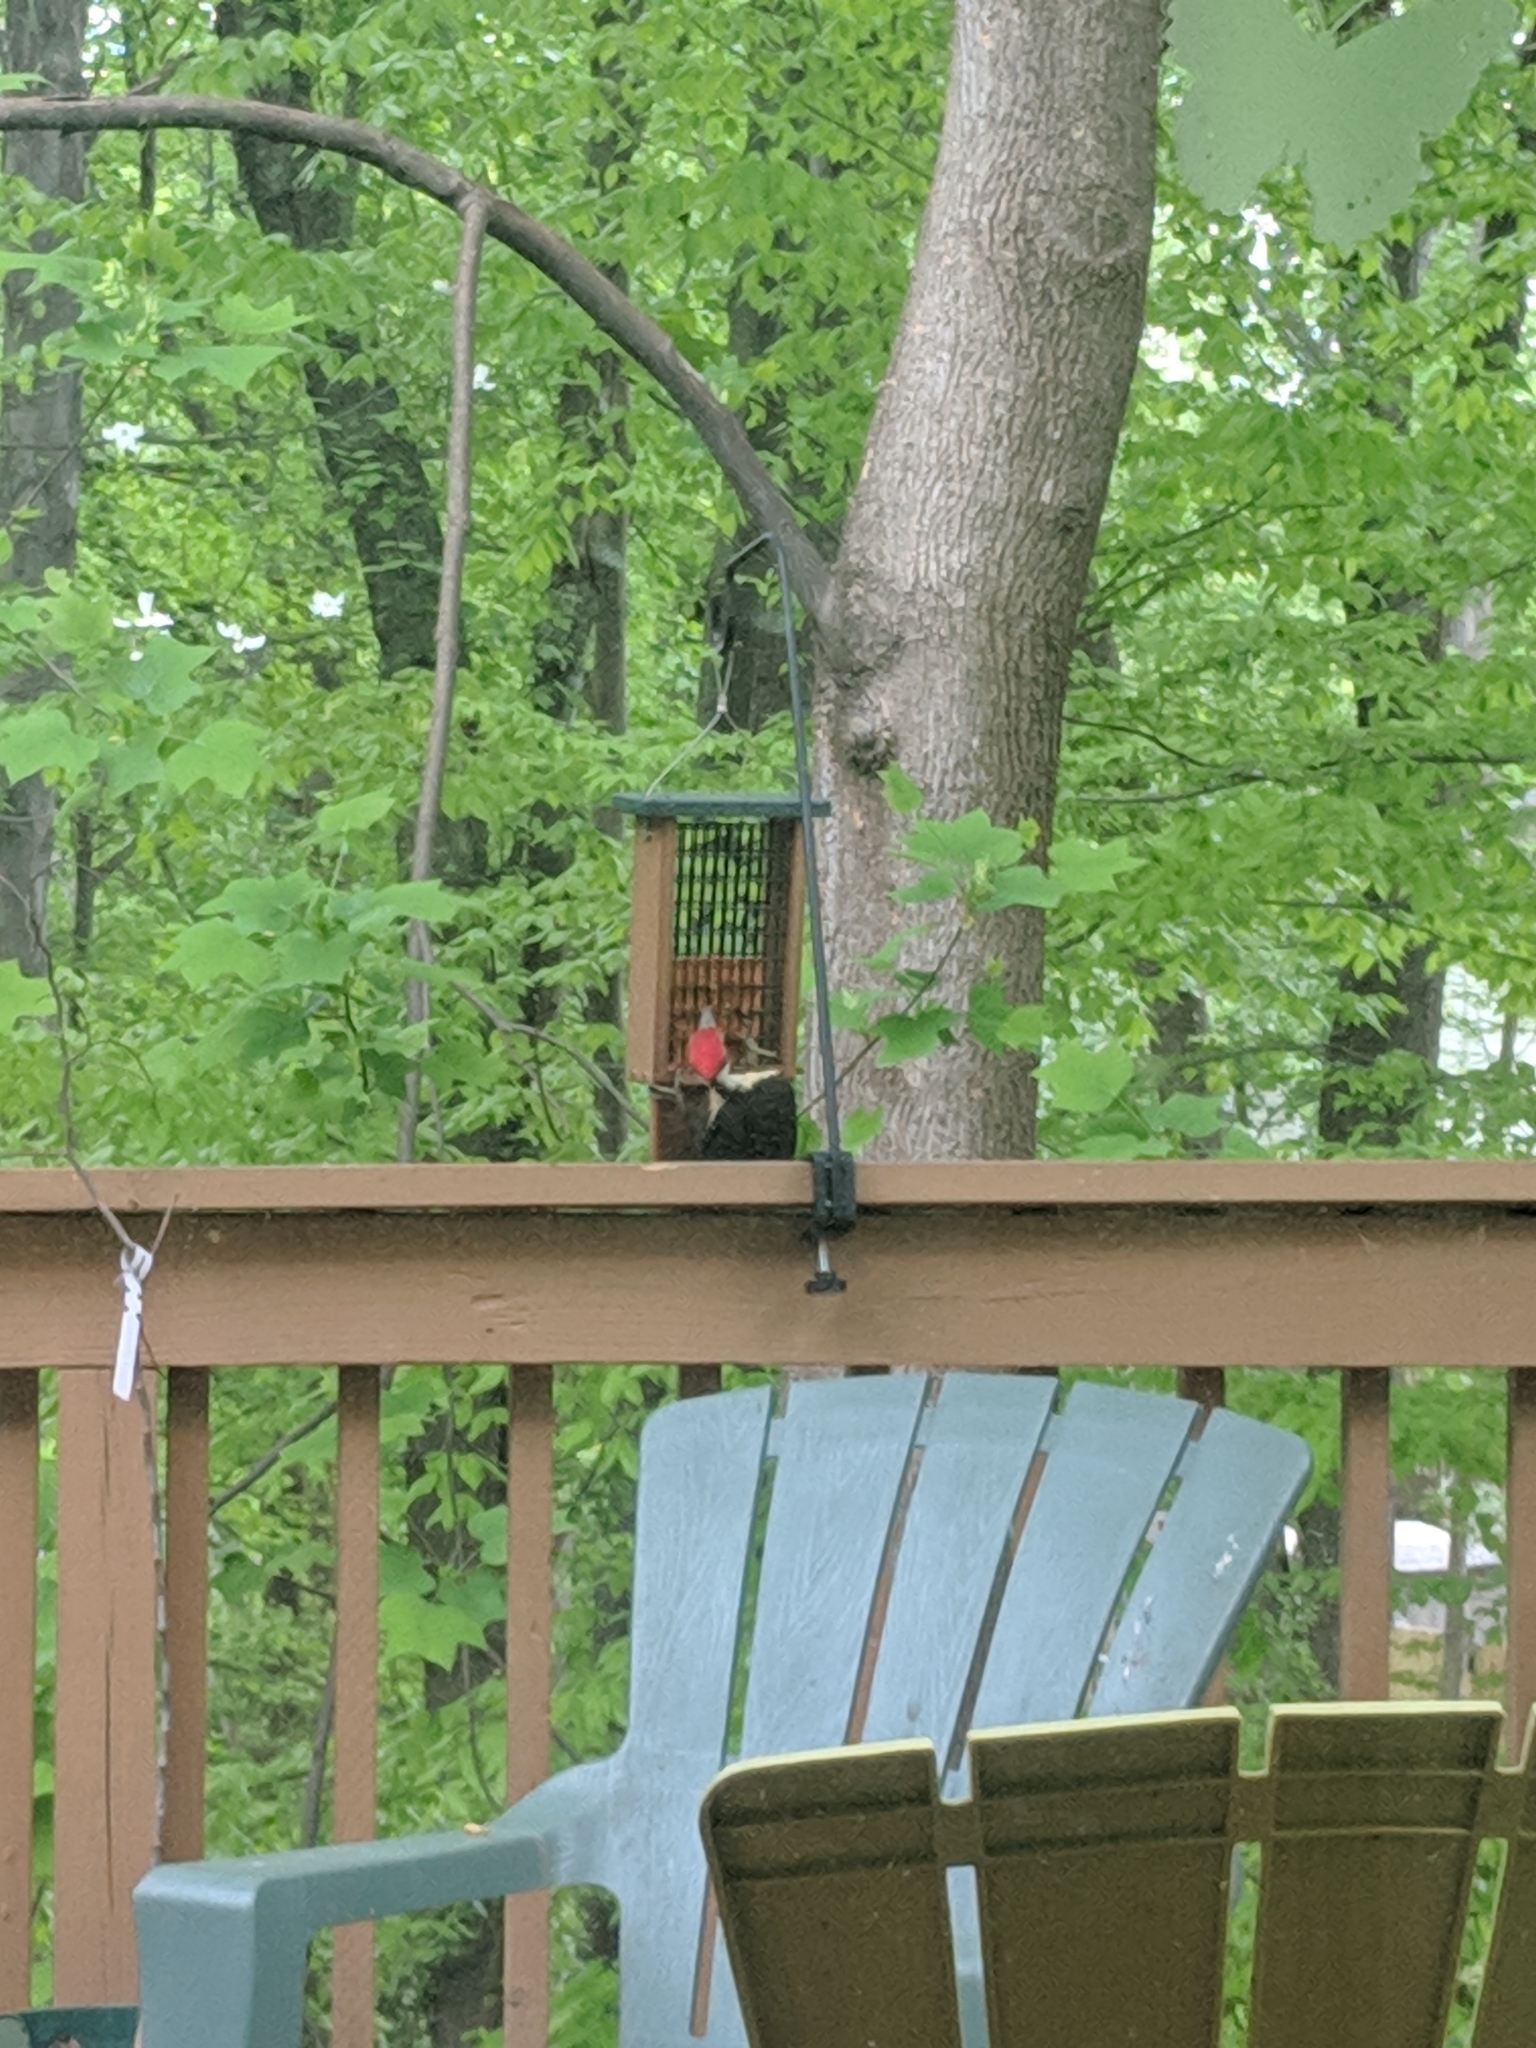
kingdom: Animalia
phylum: Chordata
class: Aves
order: Piciformes
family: Picidae
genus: Dryocopus
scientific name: Dryocopus pileatus
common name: Pileated woodpecker
